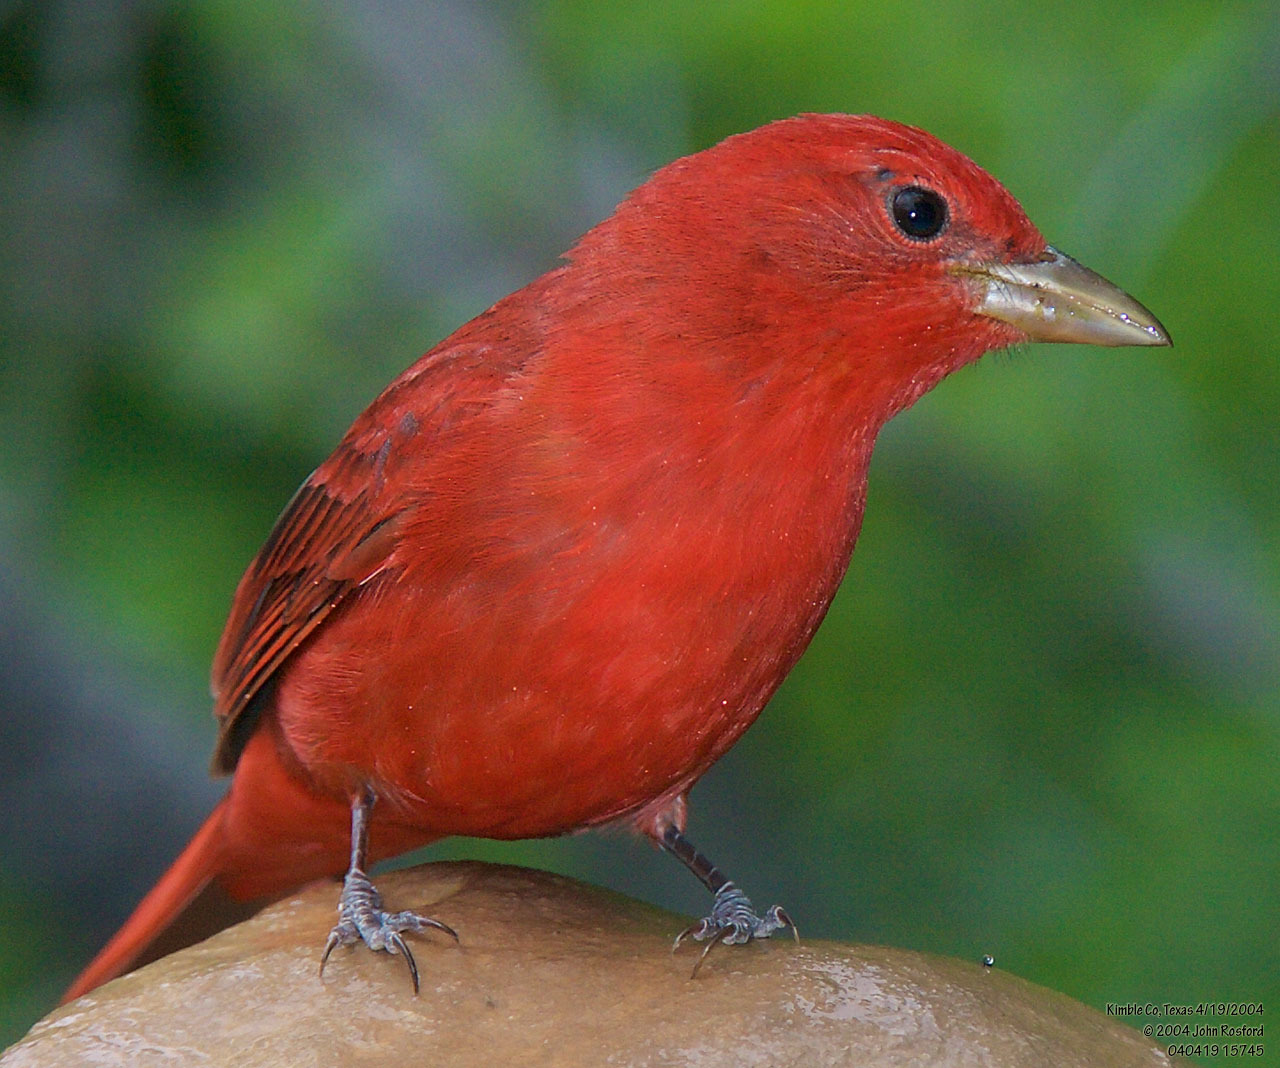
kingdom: Animalia
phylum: Chordata
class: Aves
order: Passeriformes
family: Cardinalidae
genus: Piranga
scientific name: Piranga rubra
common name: Summer tanager
